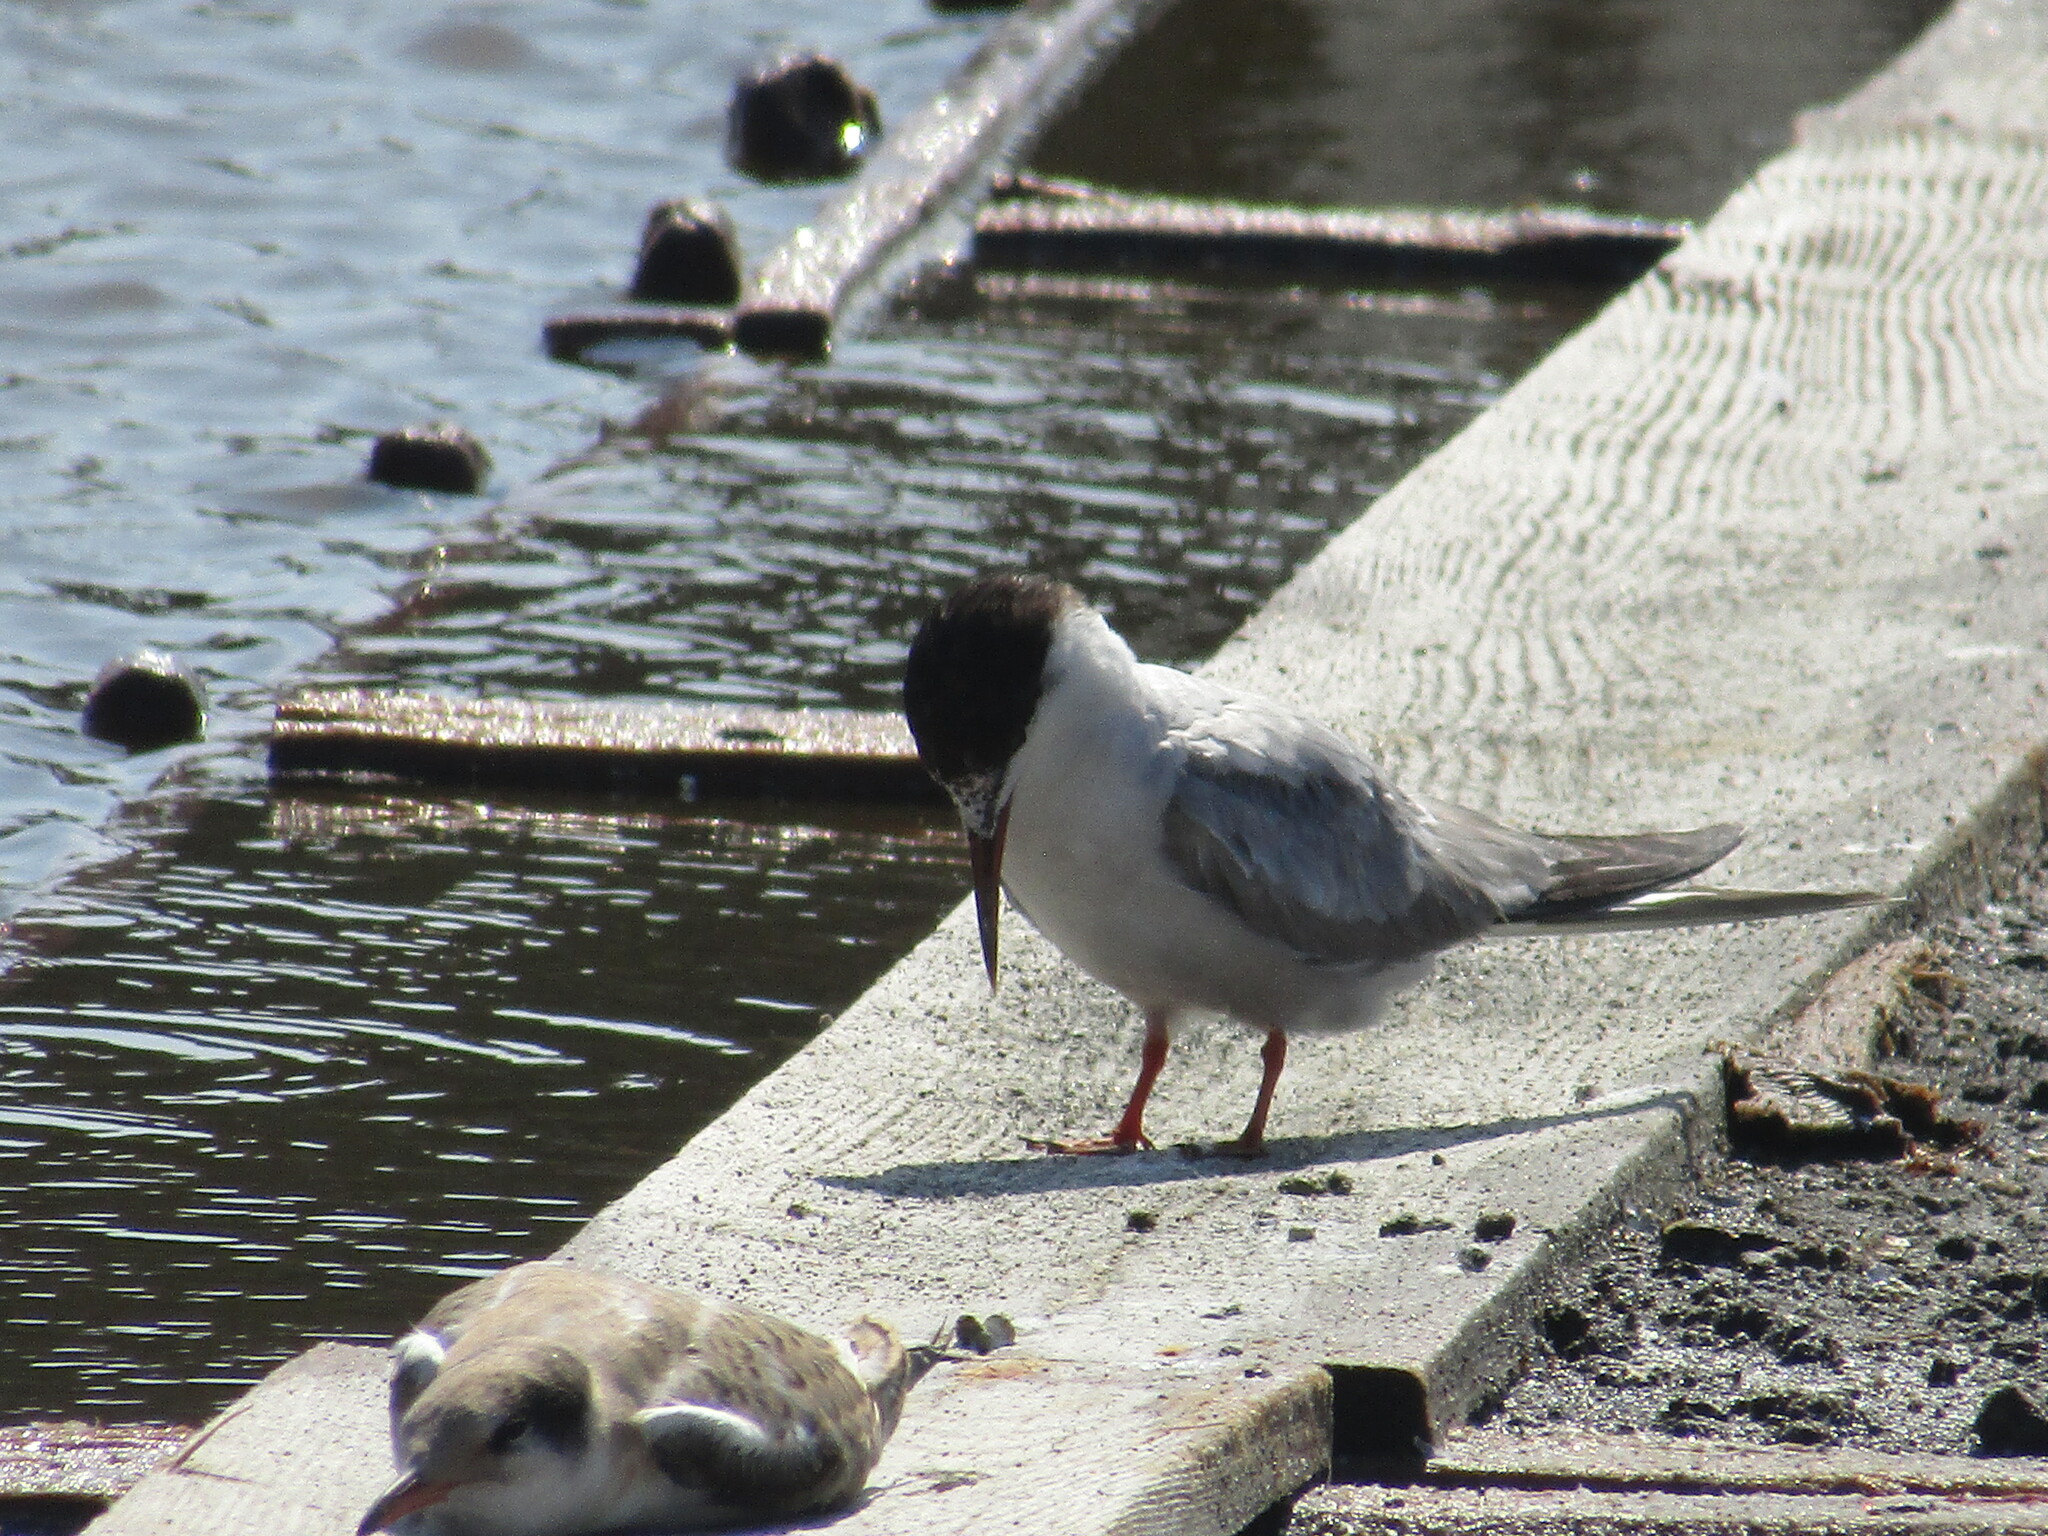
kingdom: Animalia
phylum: Chordata
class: Aves
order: Charadriiformes
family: Laridae
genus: Sterna
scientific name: Sterna hirundo
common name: Common tern
